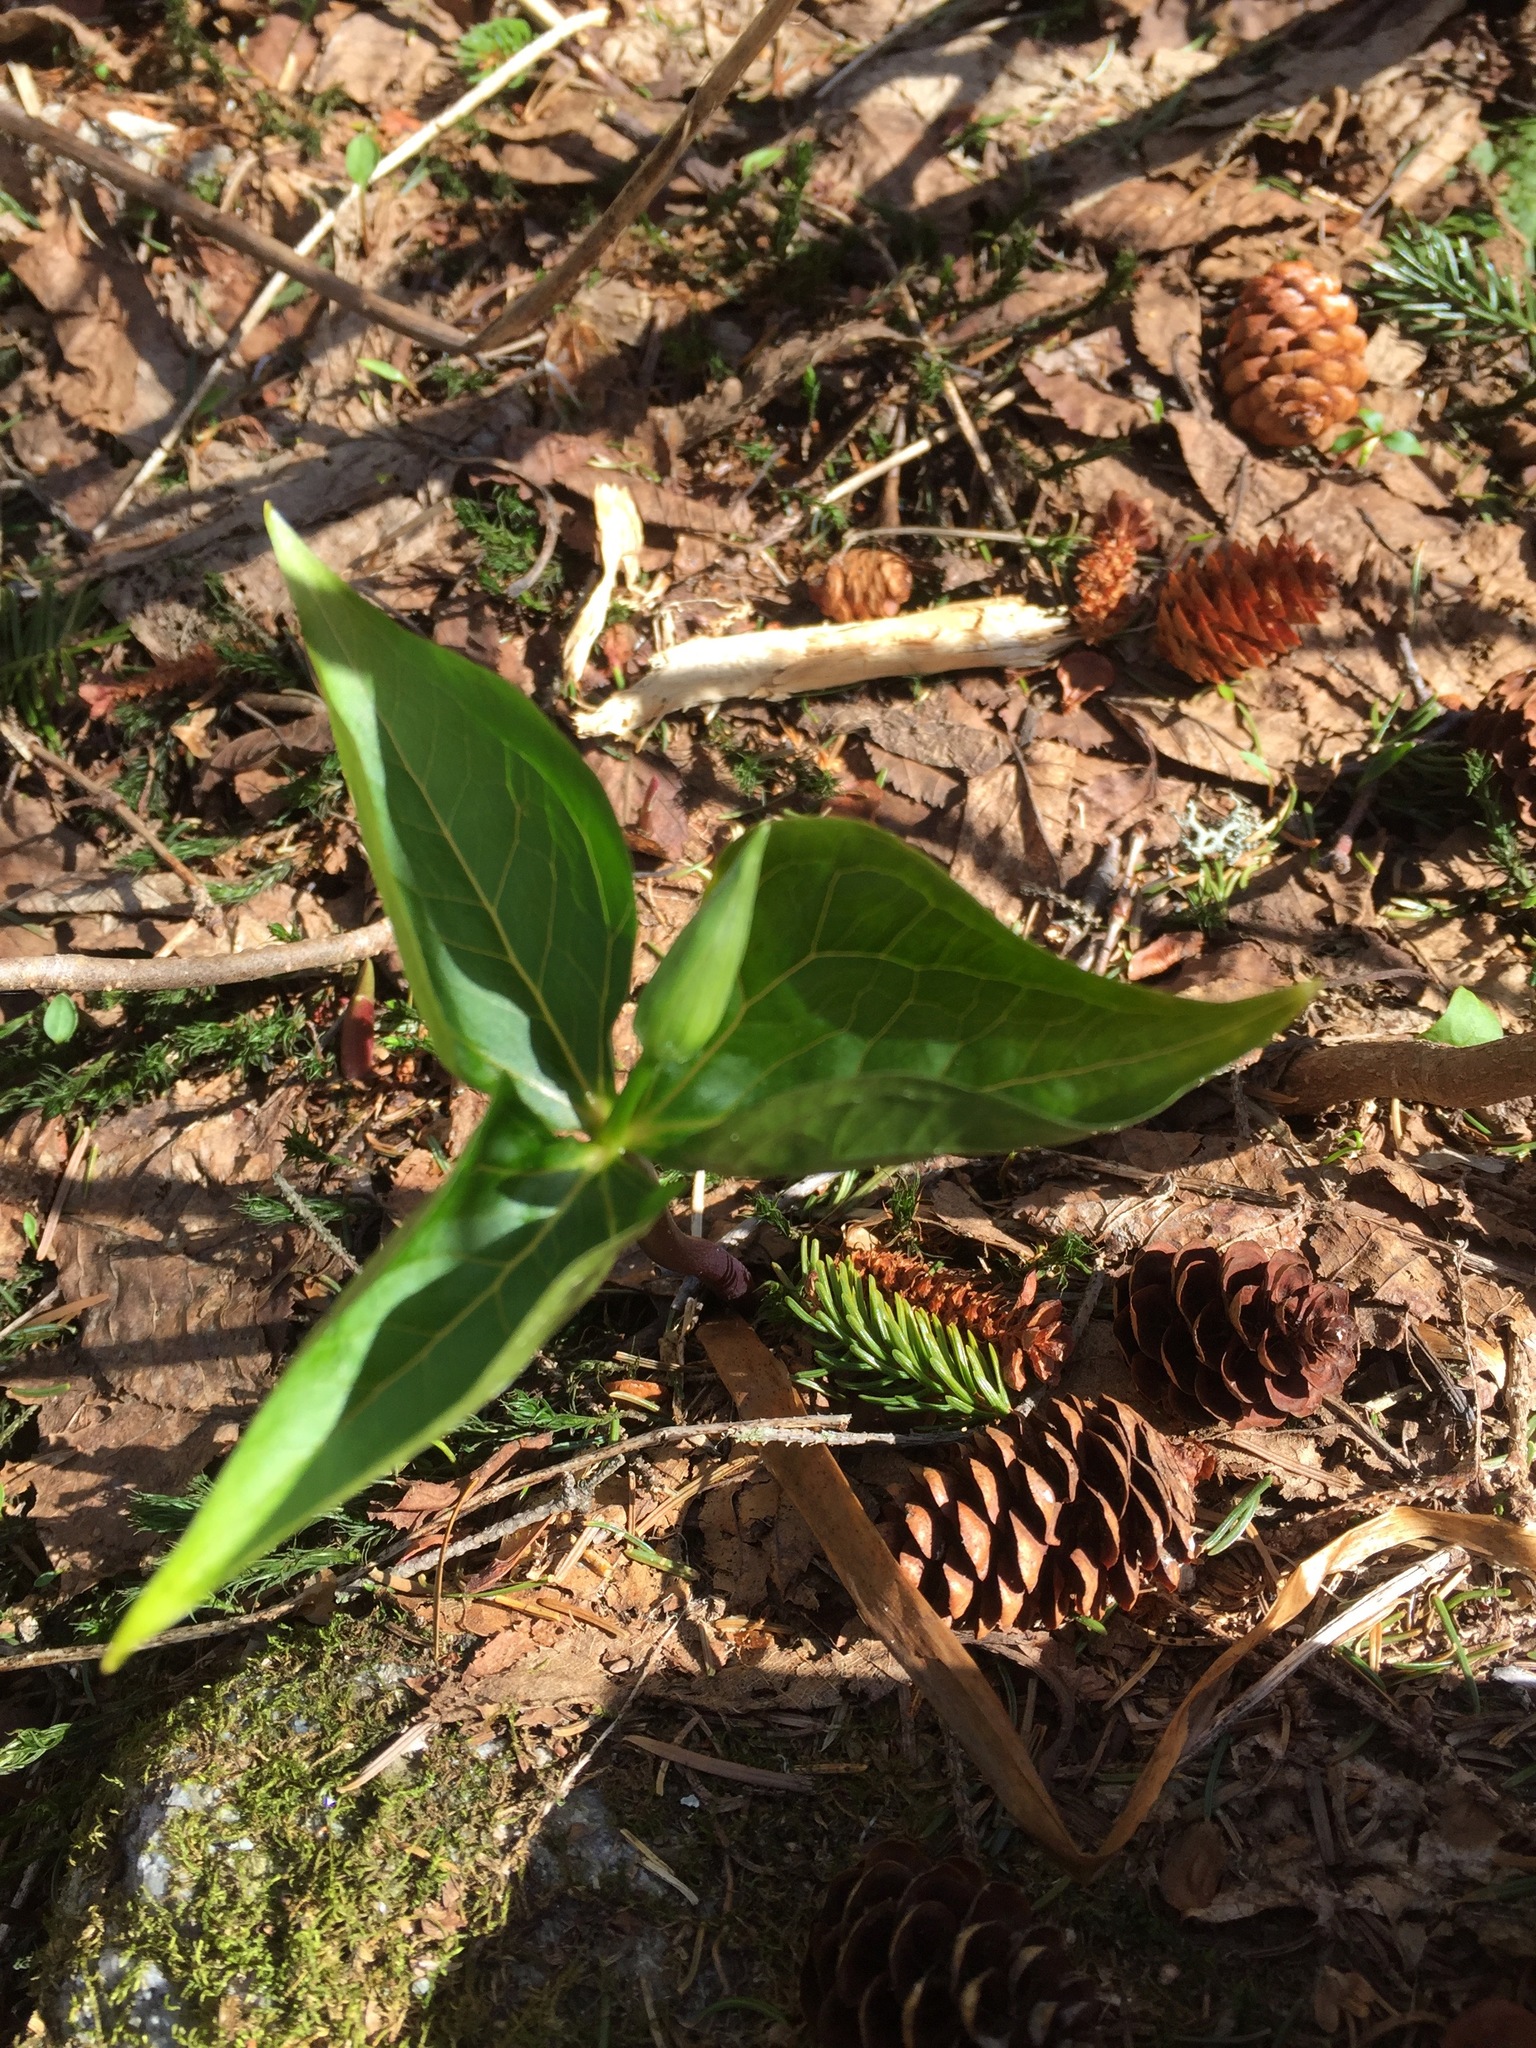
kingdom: Plantae
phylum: Tracheophyta
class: Liliopsida
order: Liliales
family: Melanthiaceae
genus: Trillium
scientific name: Trillium erectum
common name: Purple trillium
